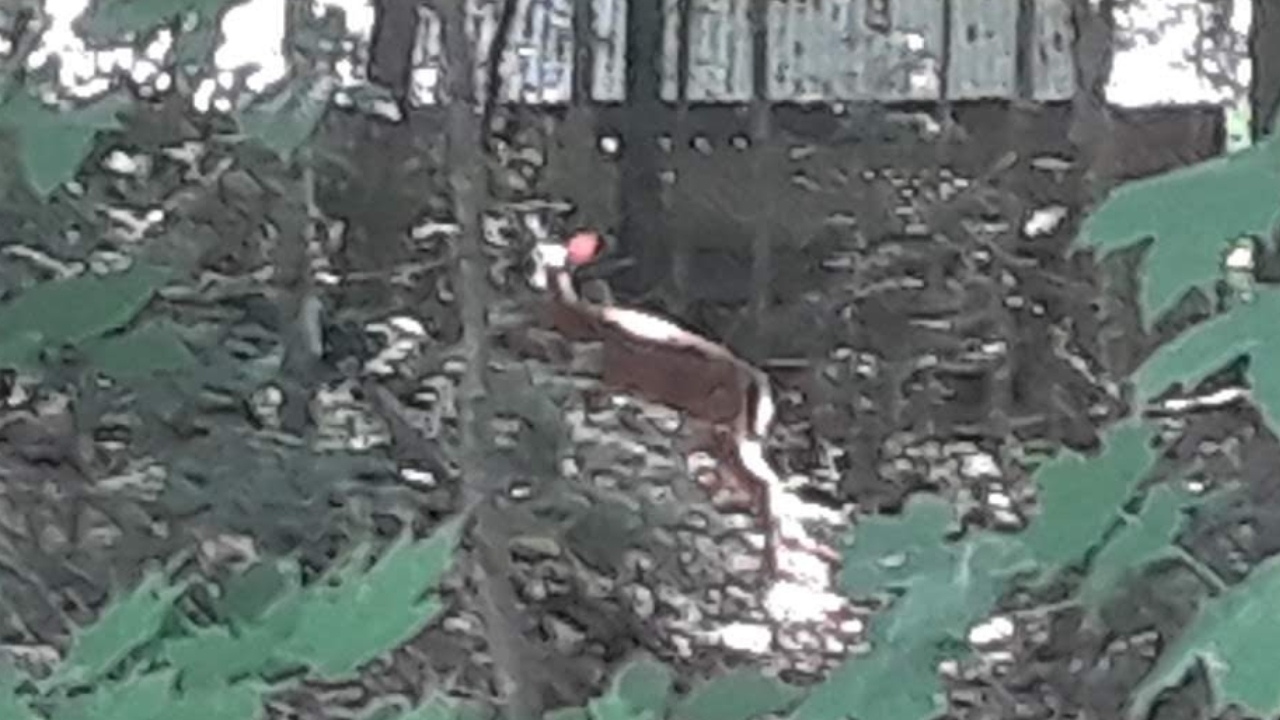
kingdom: Animalia
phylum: Chordata
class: Mammalia
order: Artiodactyla
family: Cervidae
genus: Odocoileus
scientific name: Odocoileus virginianus
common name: White-tailed deer
